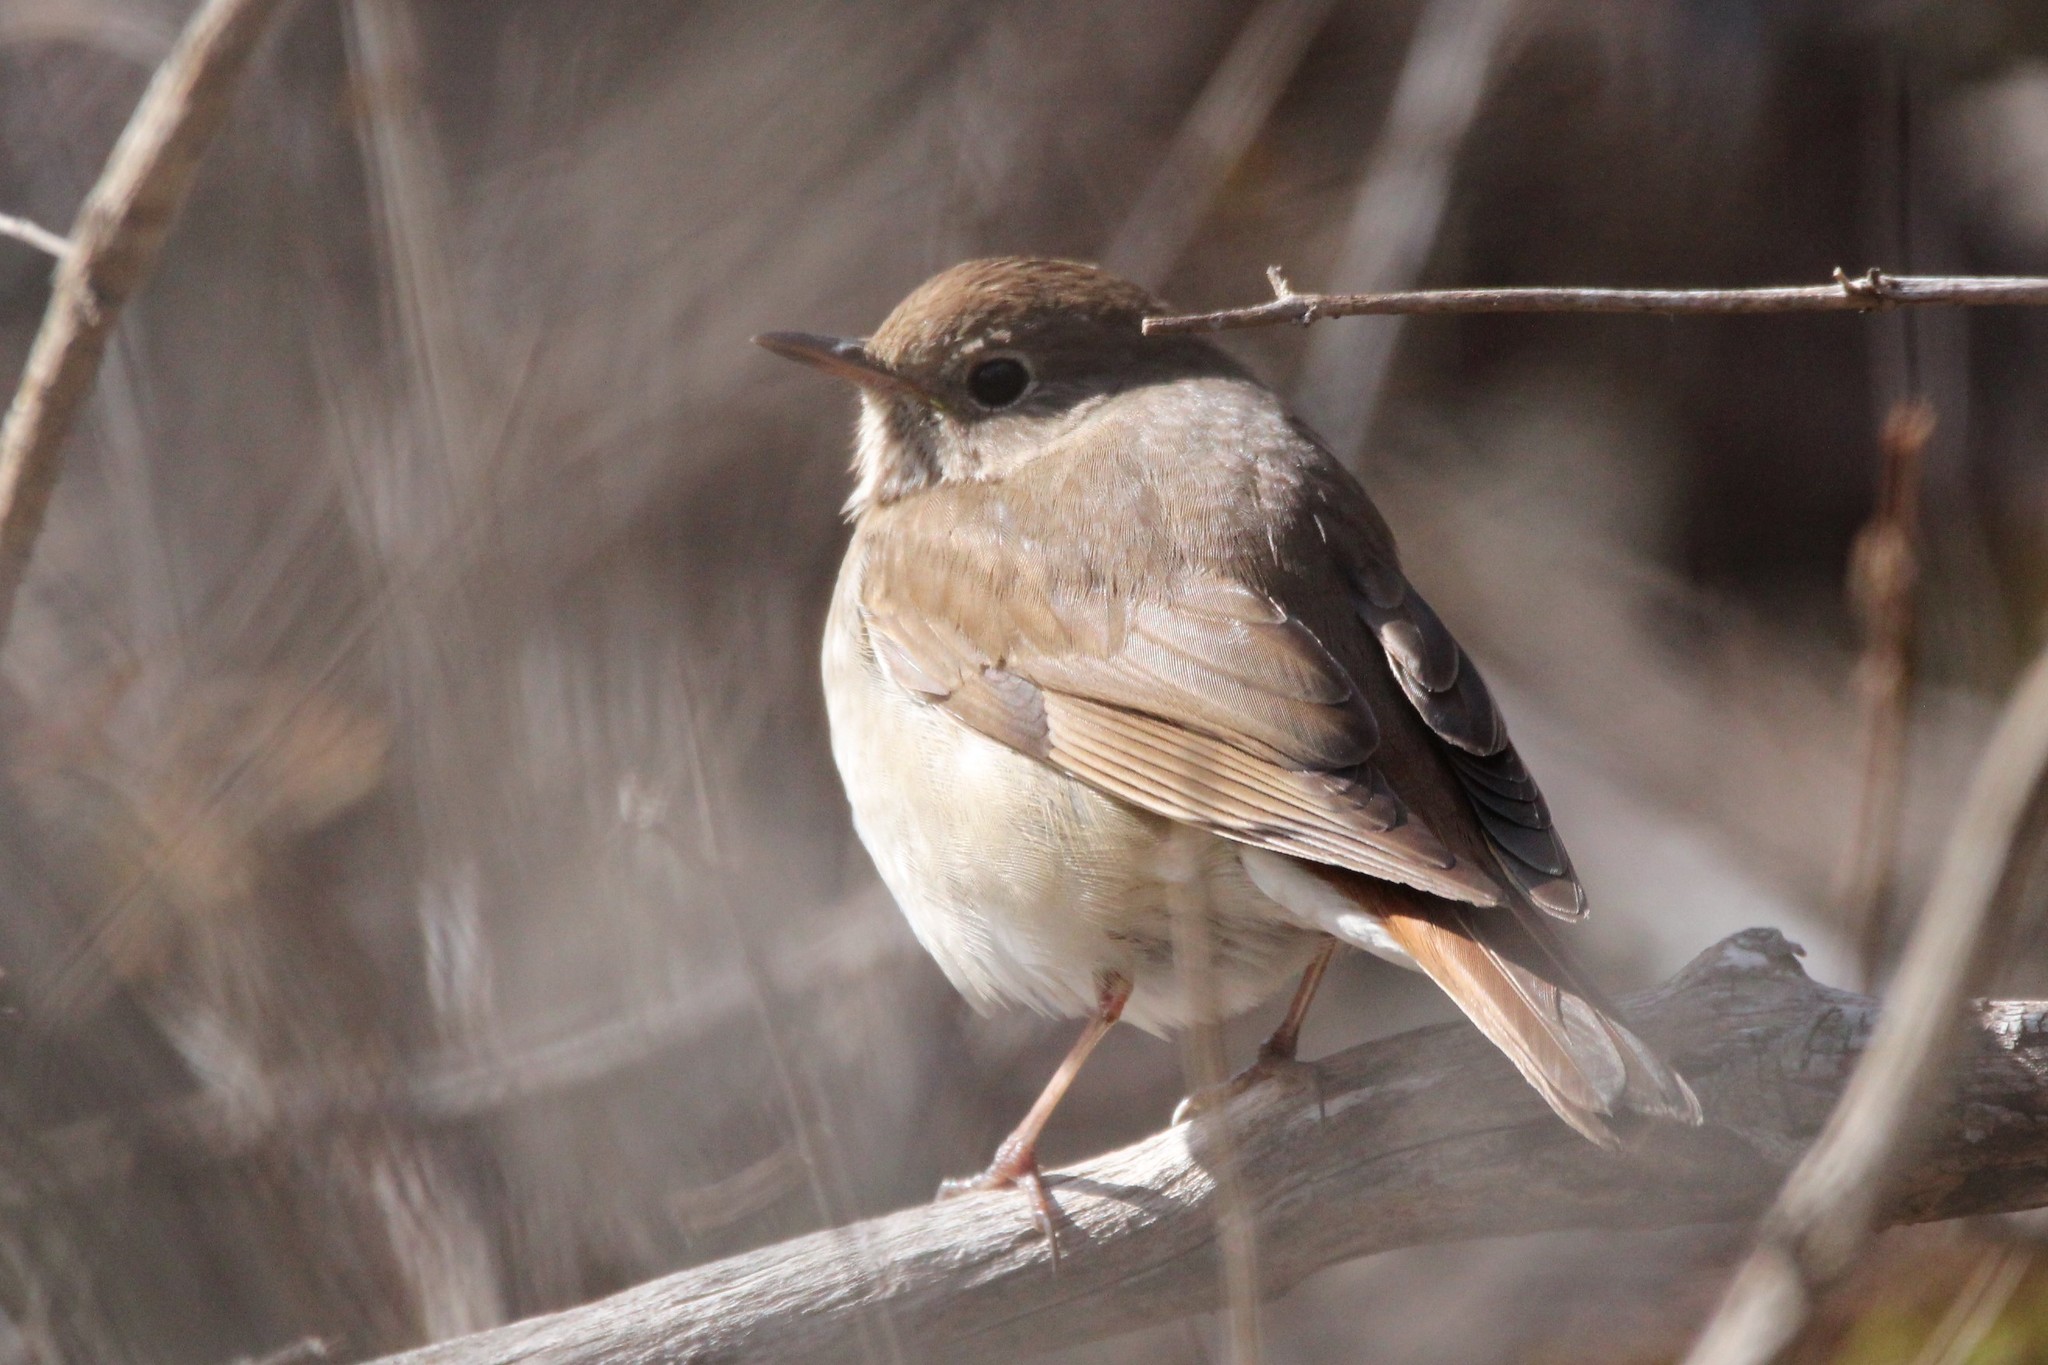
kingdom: Animalia
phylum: Chordata
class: Aves
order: Passeriformes
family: Turdidae
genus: Catharus
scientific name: Catharus guttatus
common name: Hermit thrush
